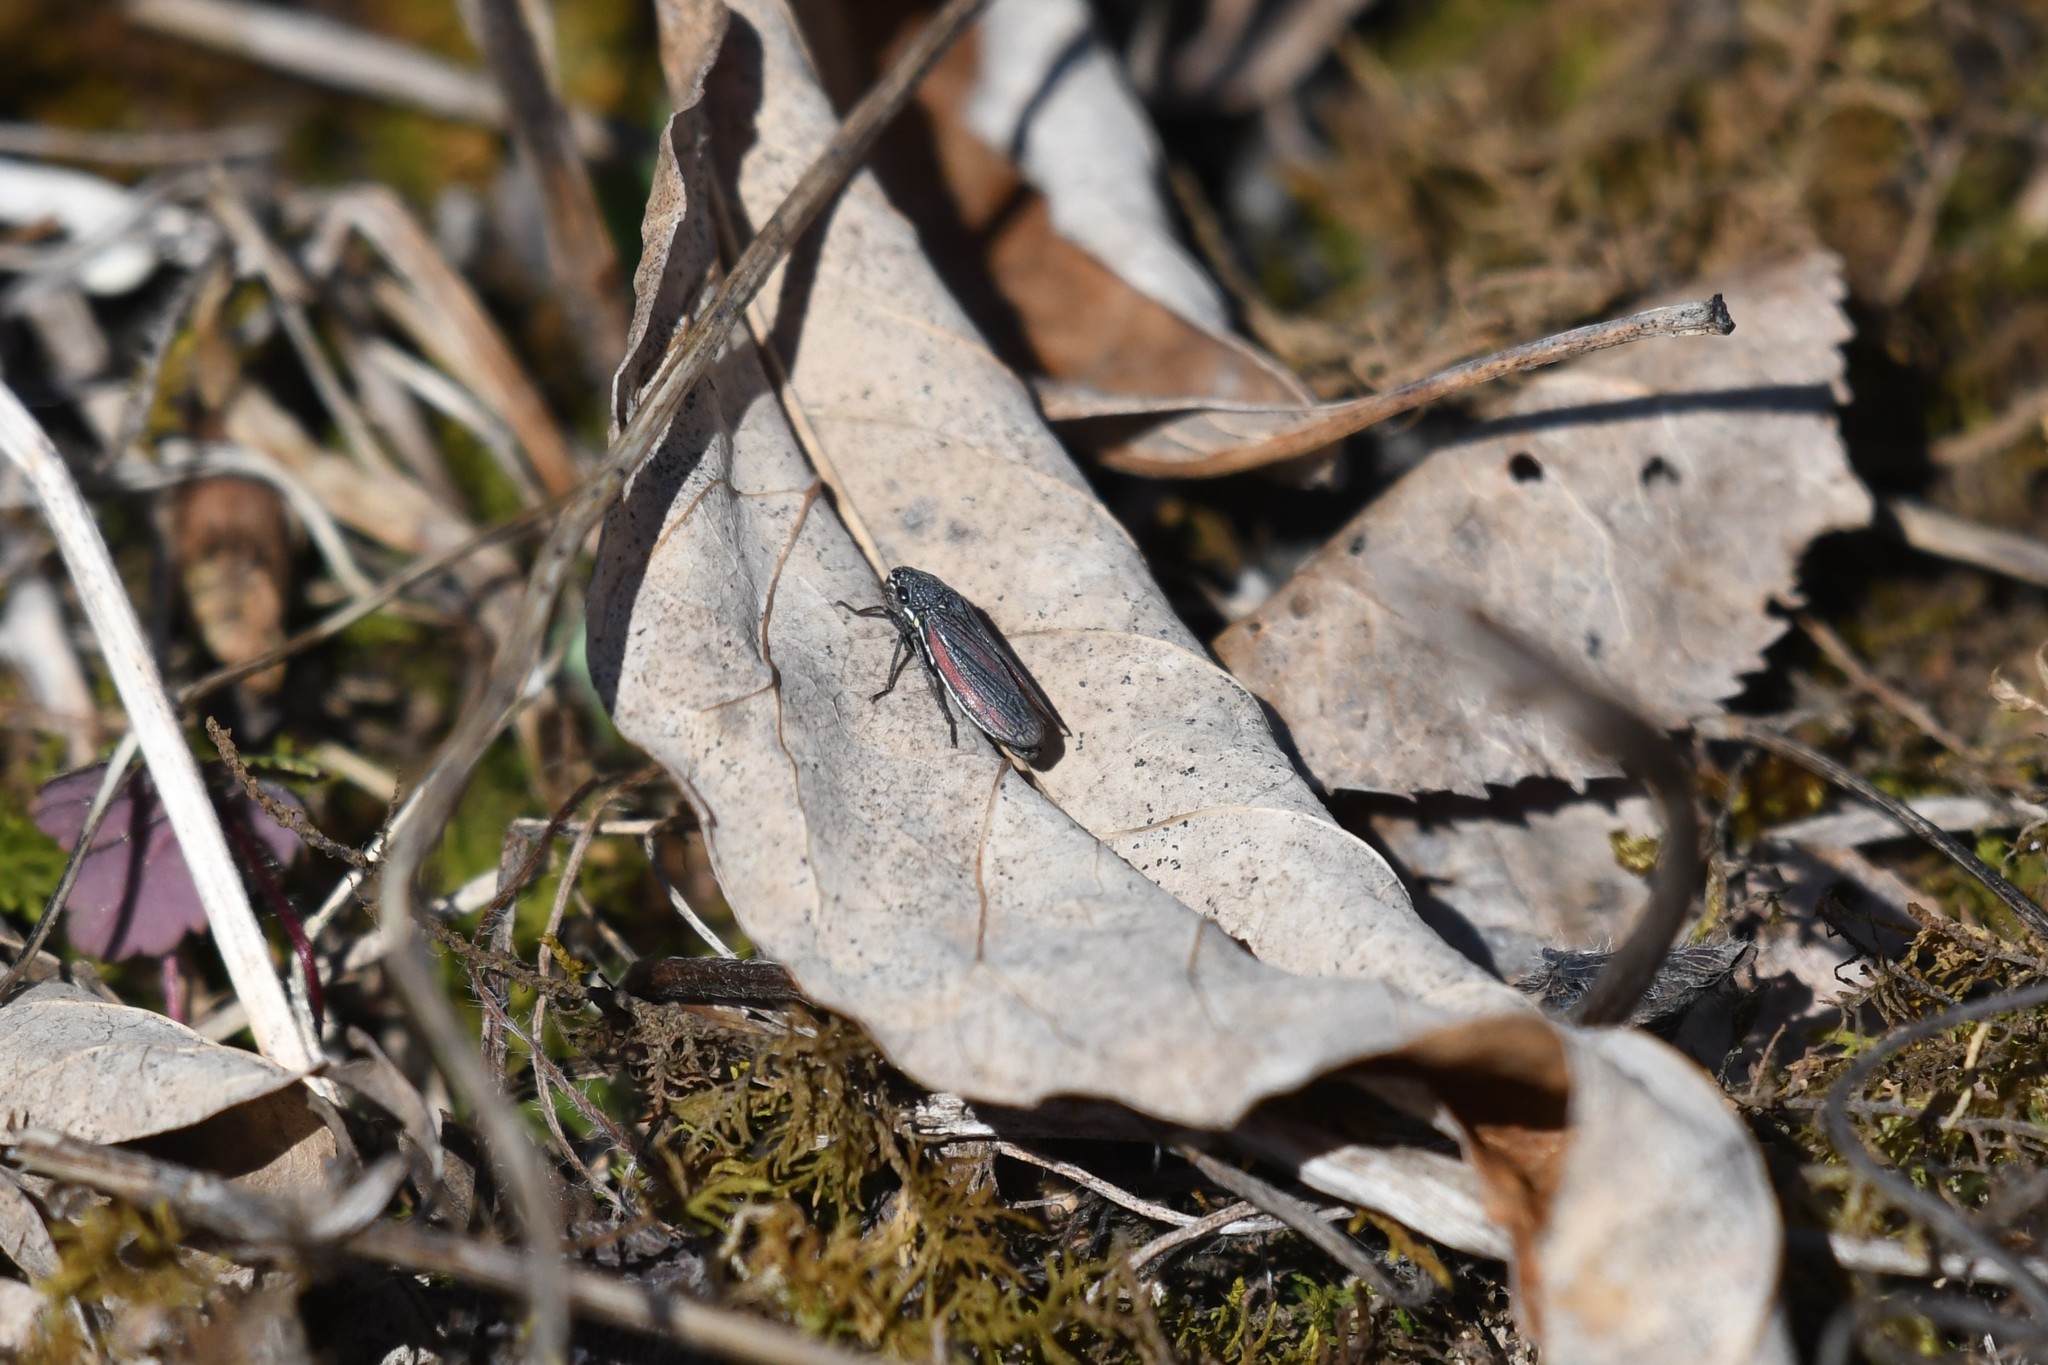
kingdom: Animalia
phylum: Arthropoda
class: Insecta
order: Hemiptera
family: Cicadellidae
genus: Cuerna
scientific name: Cuerna striata
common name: Striped leafhopper
